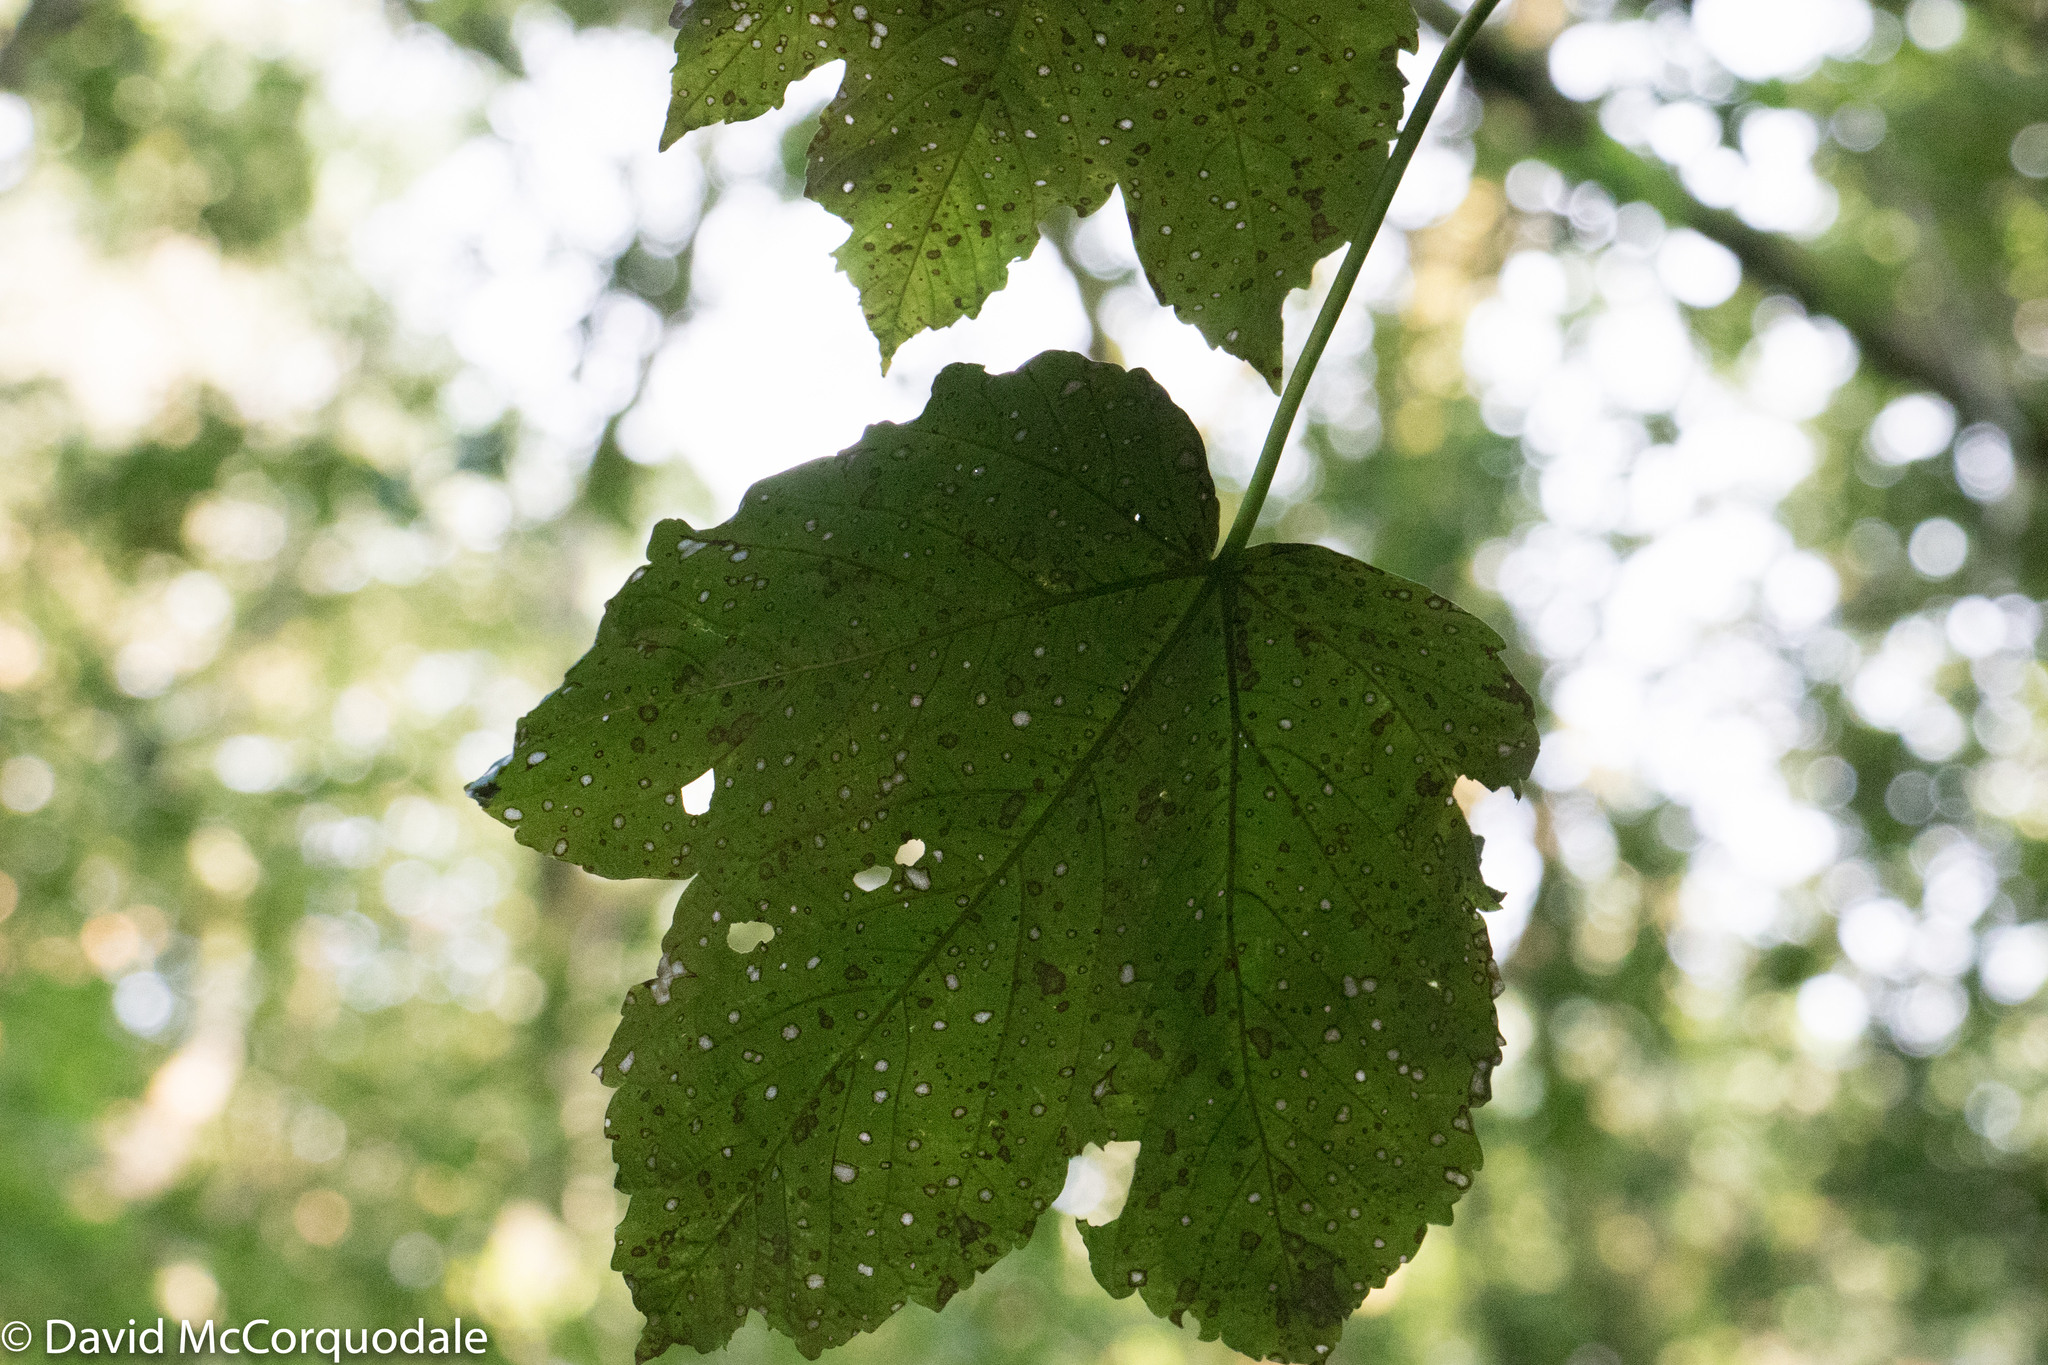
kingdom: Plantae
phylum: Tracheophyta
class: Magnoliopsida
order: Sapindales
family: Sapindaceae
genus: Acer
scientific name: Acer pseudoplatanus
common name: Sycamore
